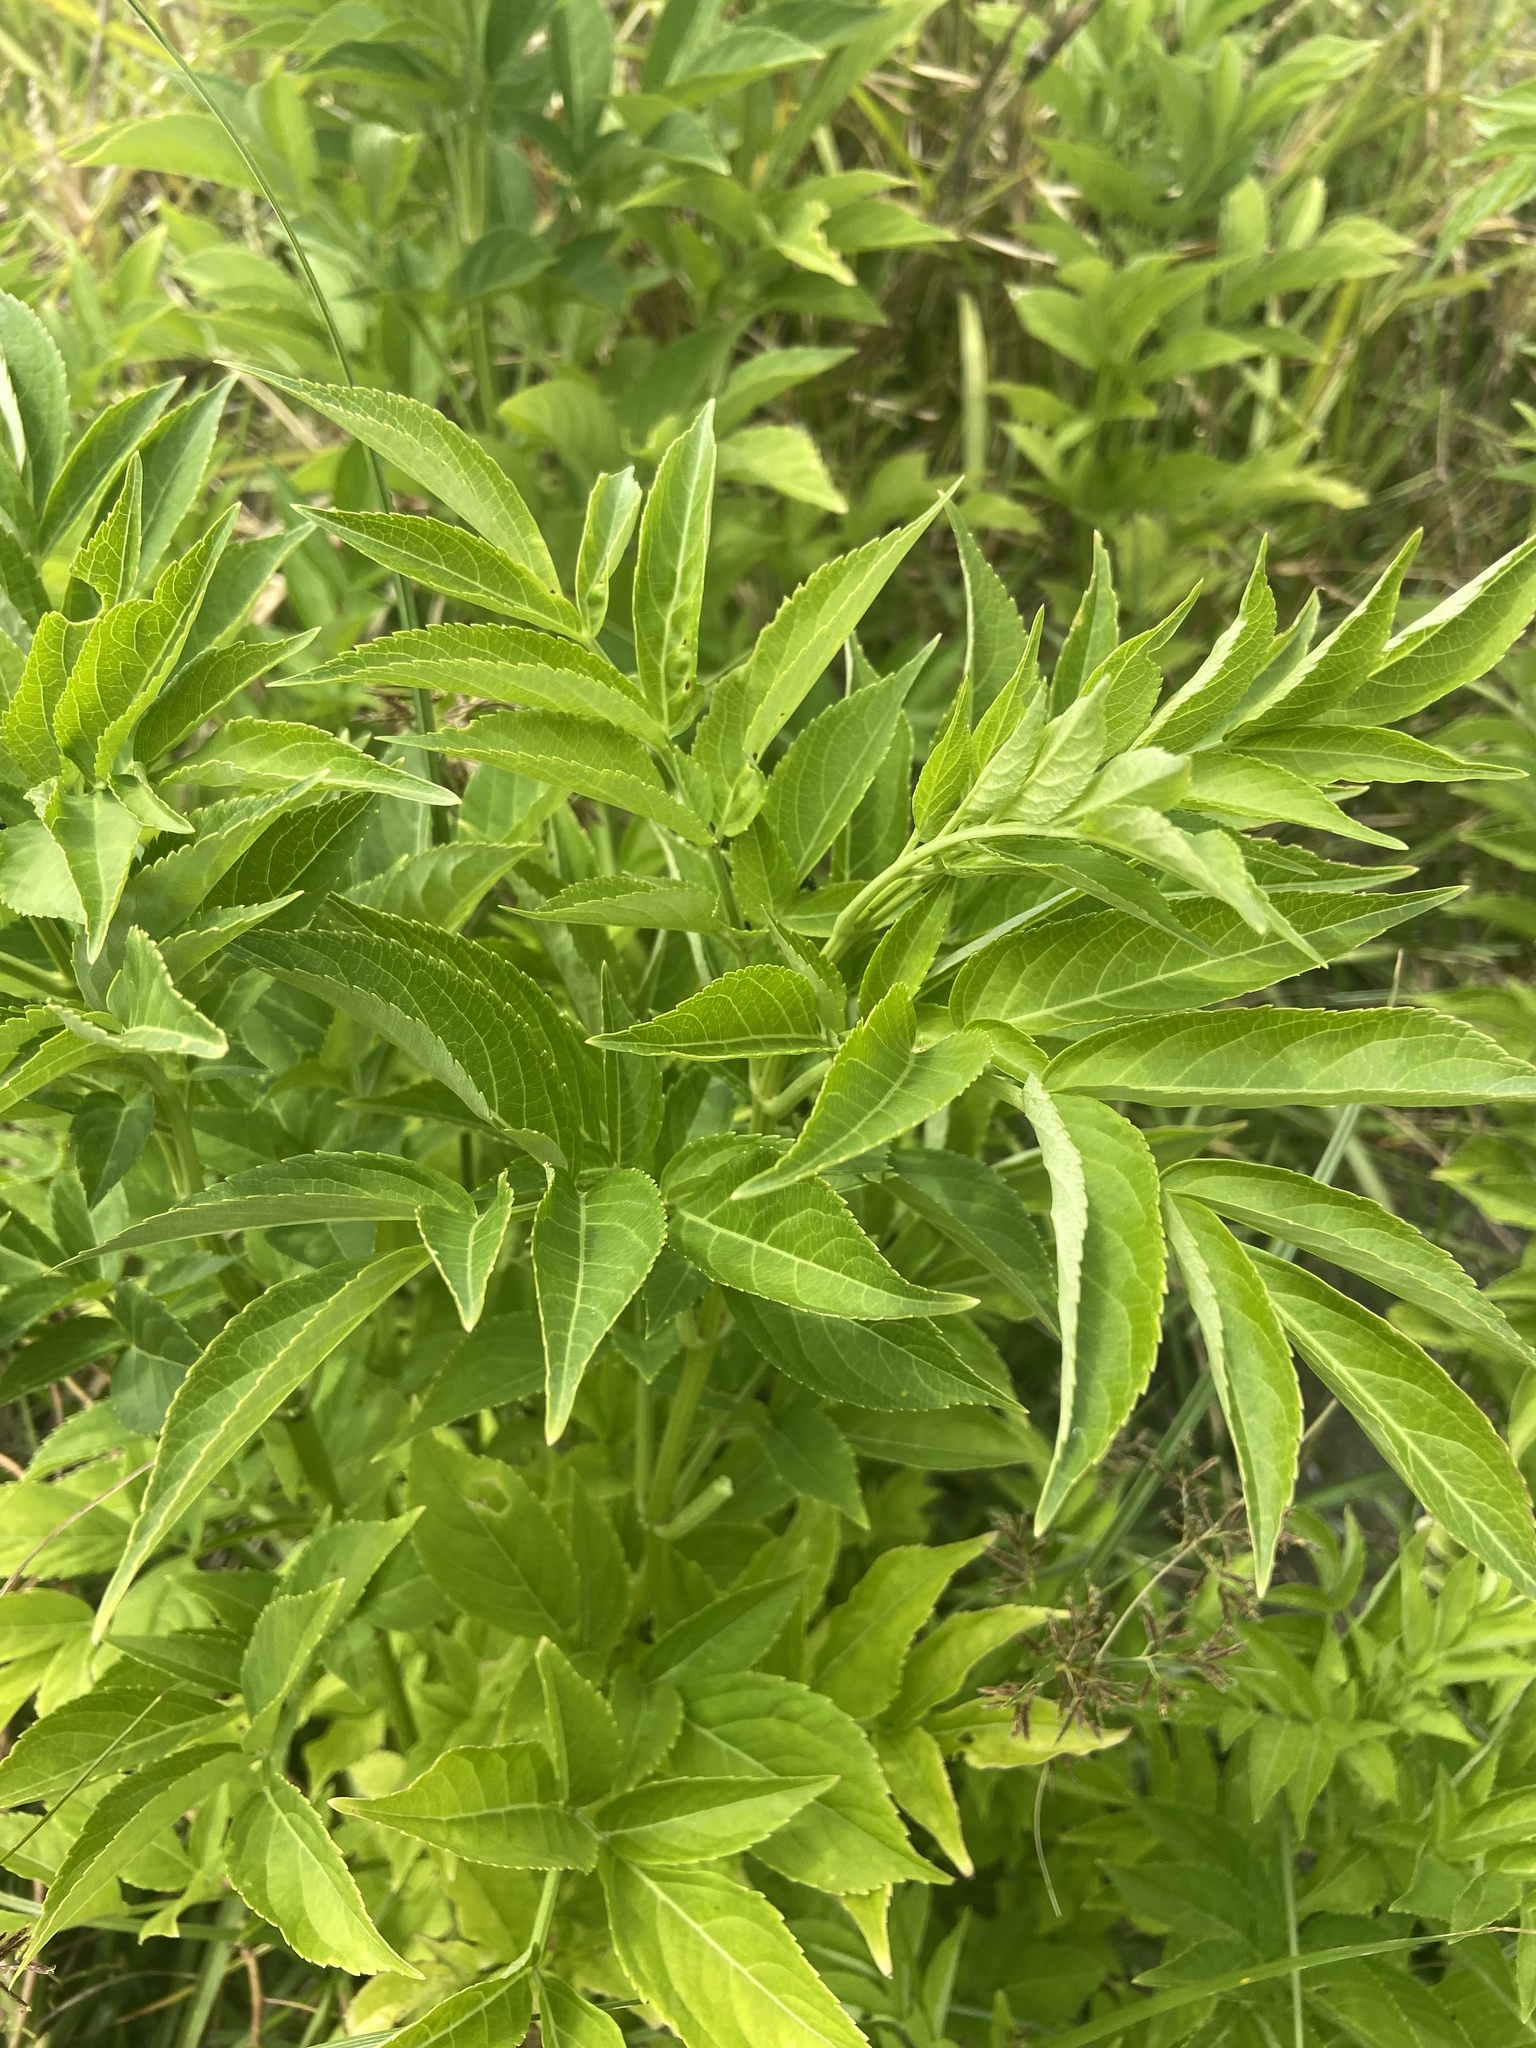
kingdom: Plantae
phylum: Tracheophyta
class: Magnoliopsida
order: Dipsacales
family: Viburnaceae
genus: Sambucus
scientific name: Sambucus nigra
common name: Elder
